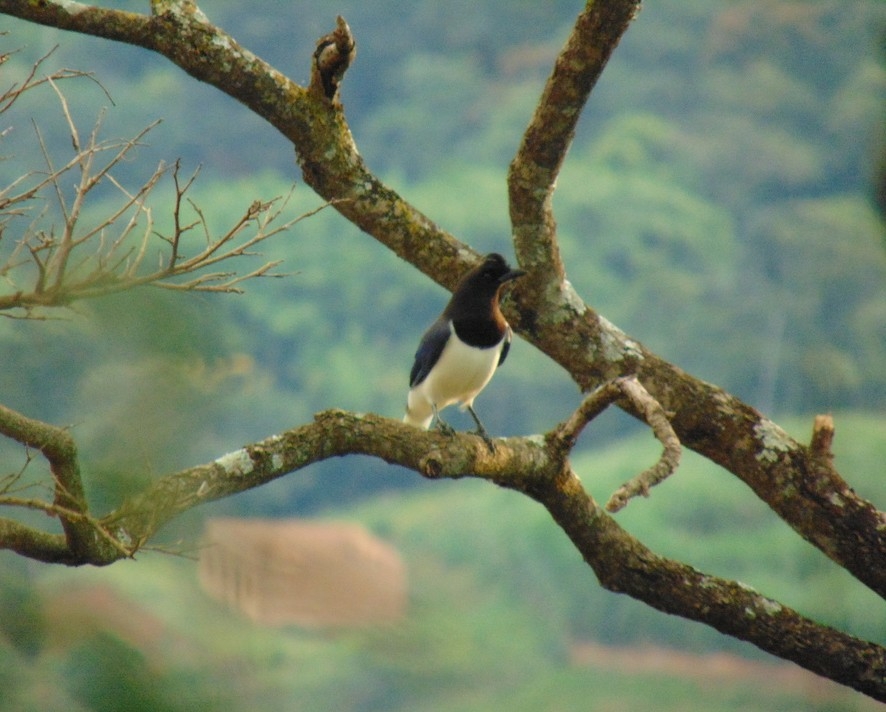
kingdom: Animalia
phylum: Chordata
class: Aves
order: Passeriformes
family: Corvidae
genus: Cyanocorax
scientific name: Cyanocorax cristatellus
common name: Curl-crested jay
